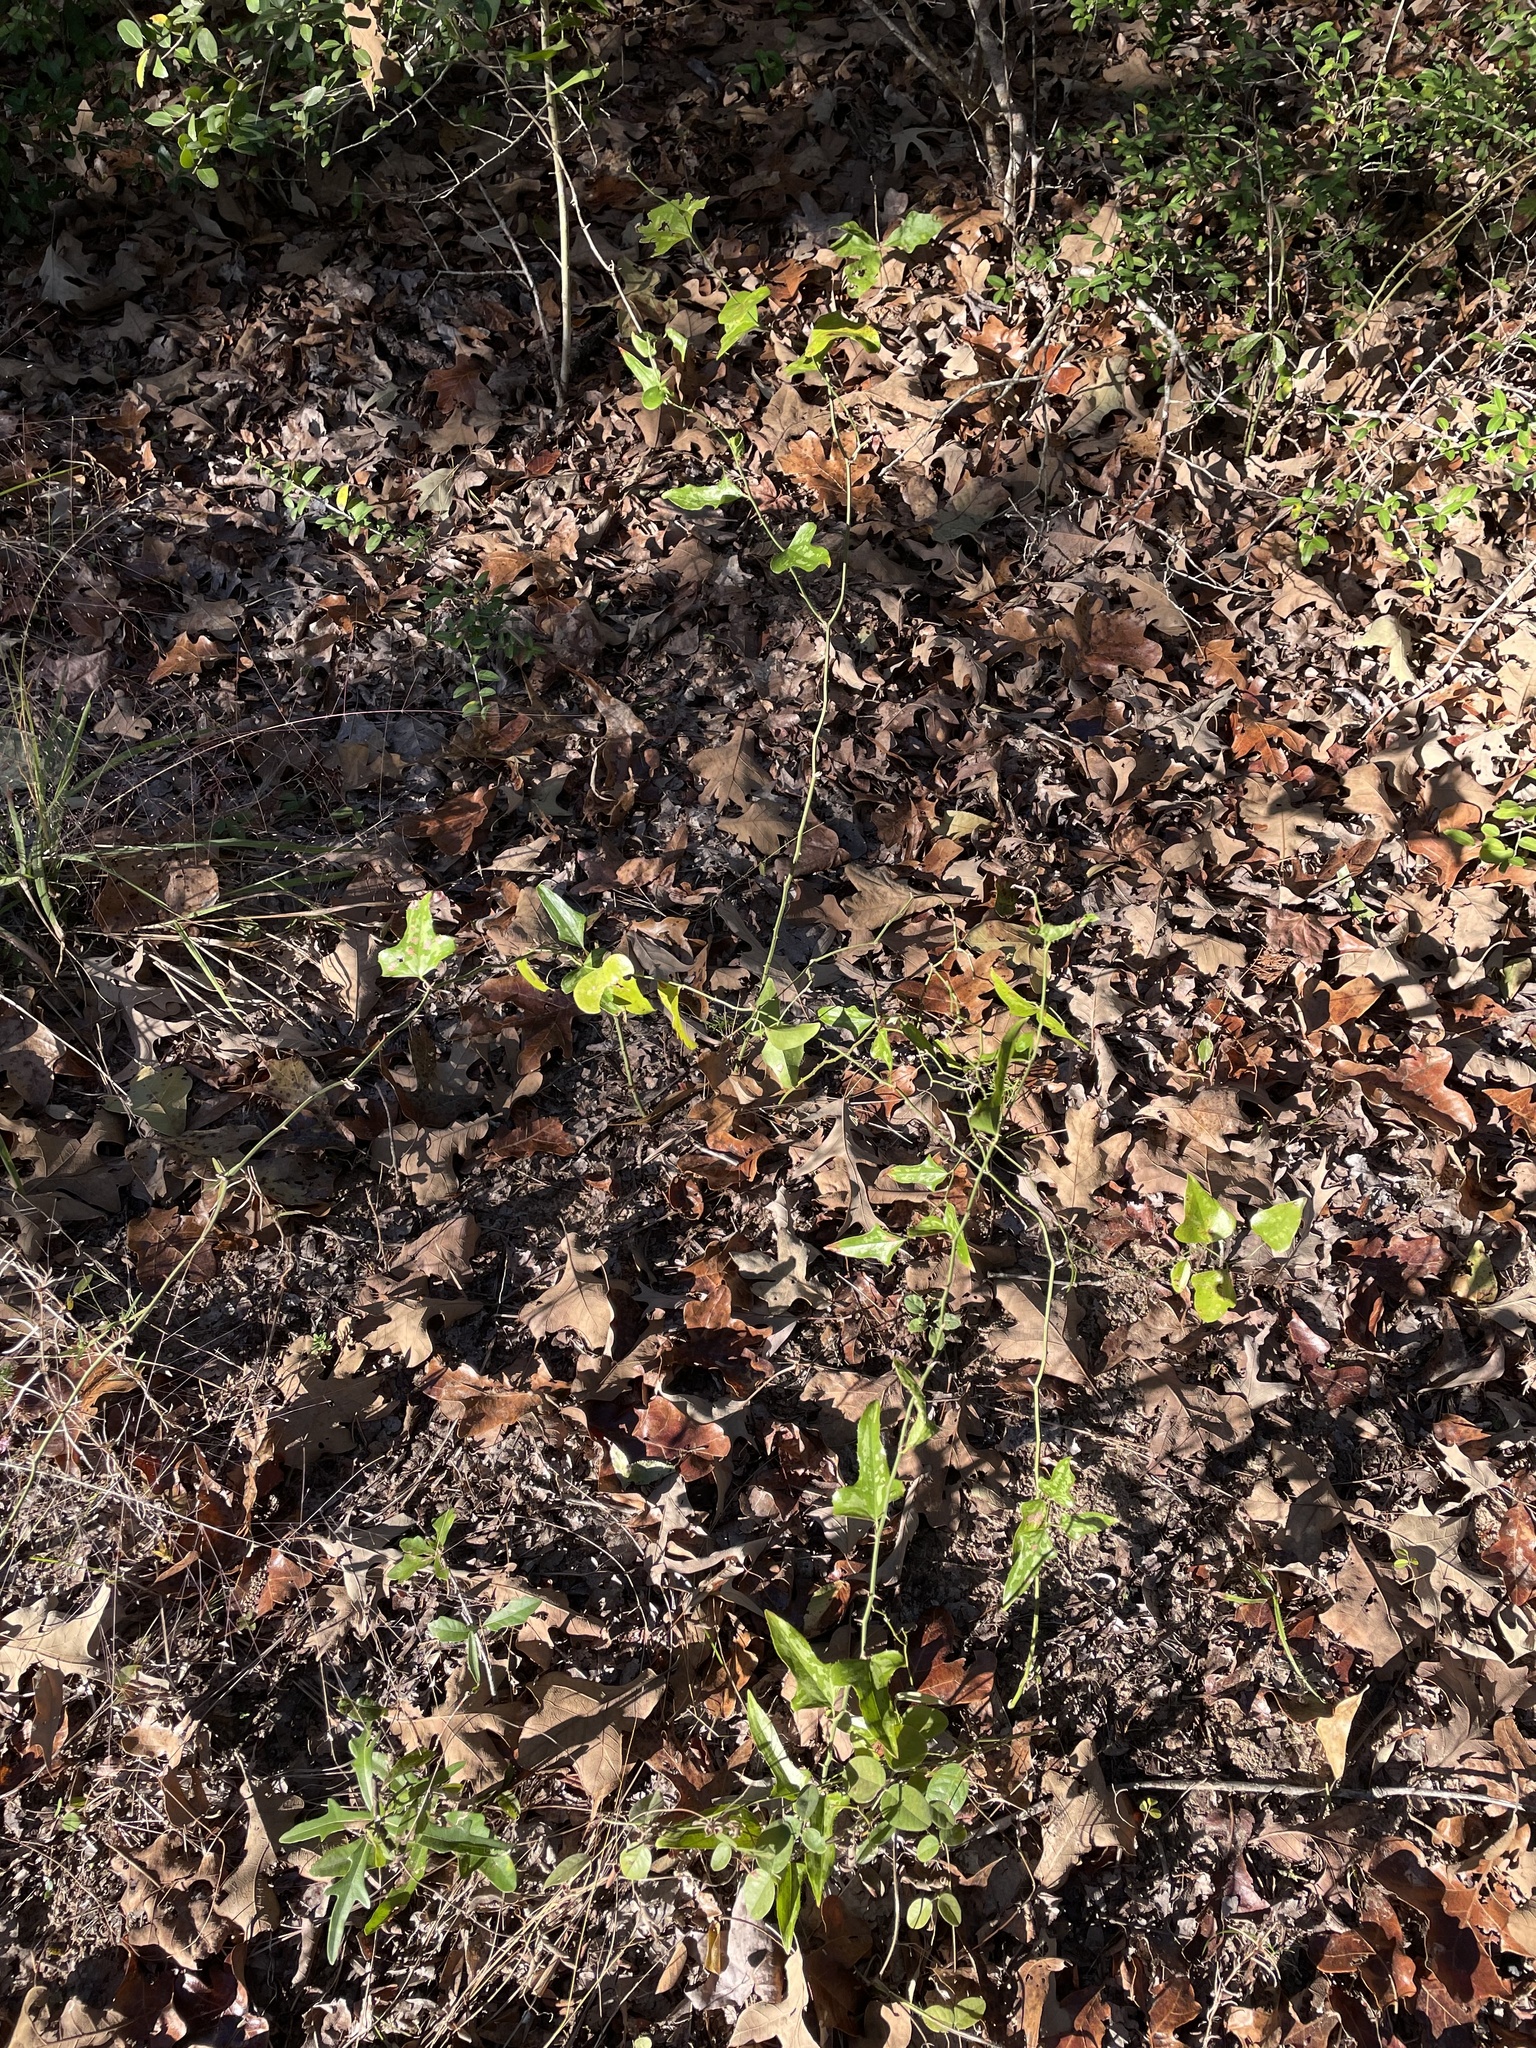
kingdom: Plantae
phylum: Tracheophyta
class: Liliopsida
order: Liliales
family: Smilacaceae
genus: Smilax
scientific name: Smilax bona-nox
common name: Catbrier
